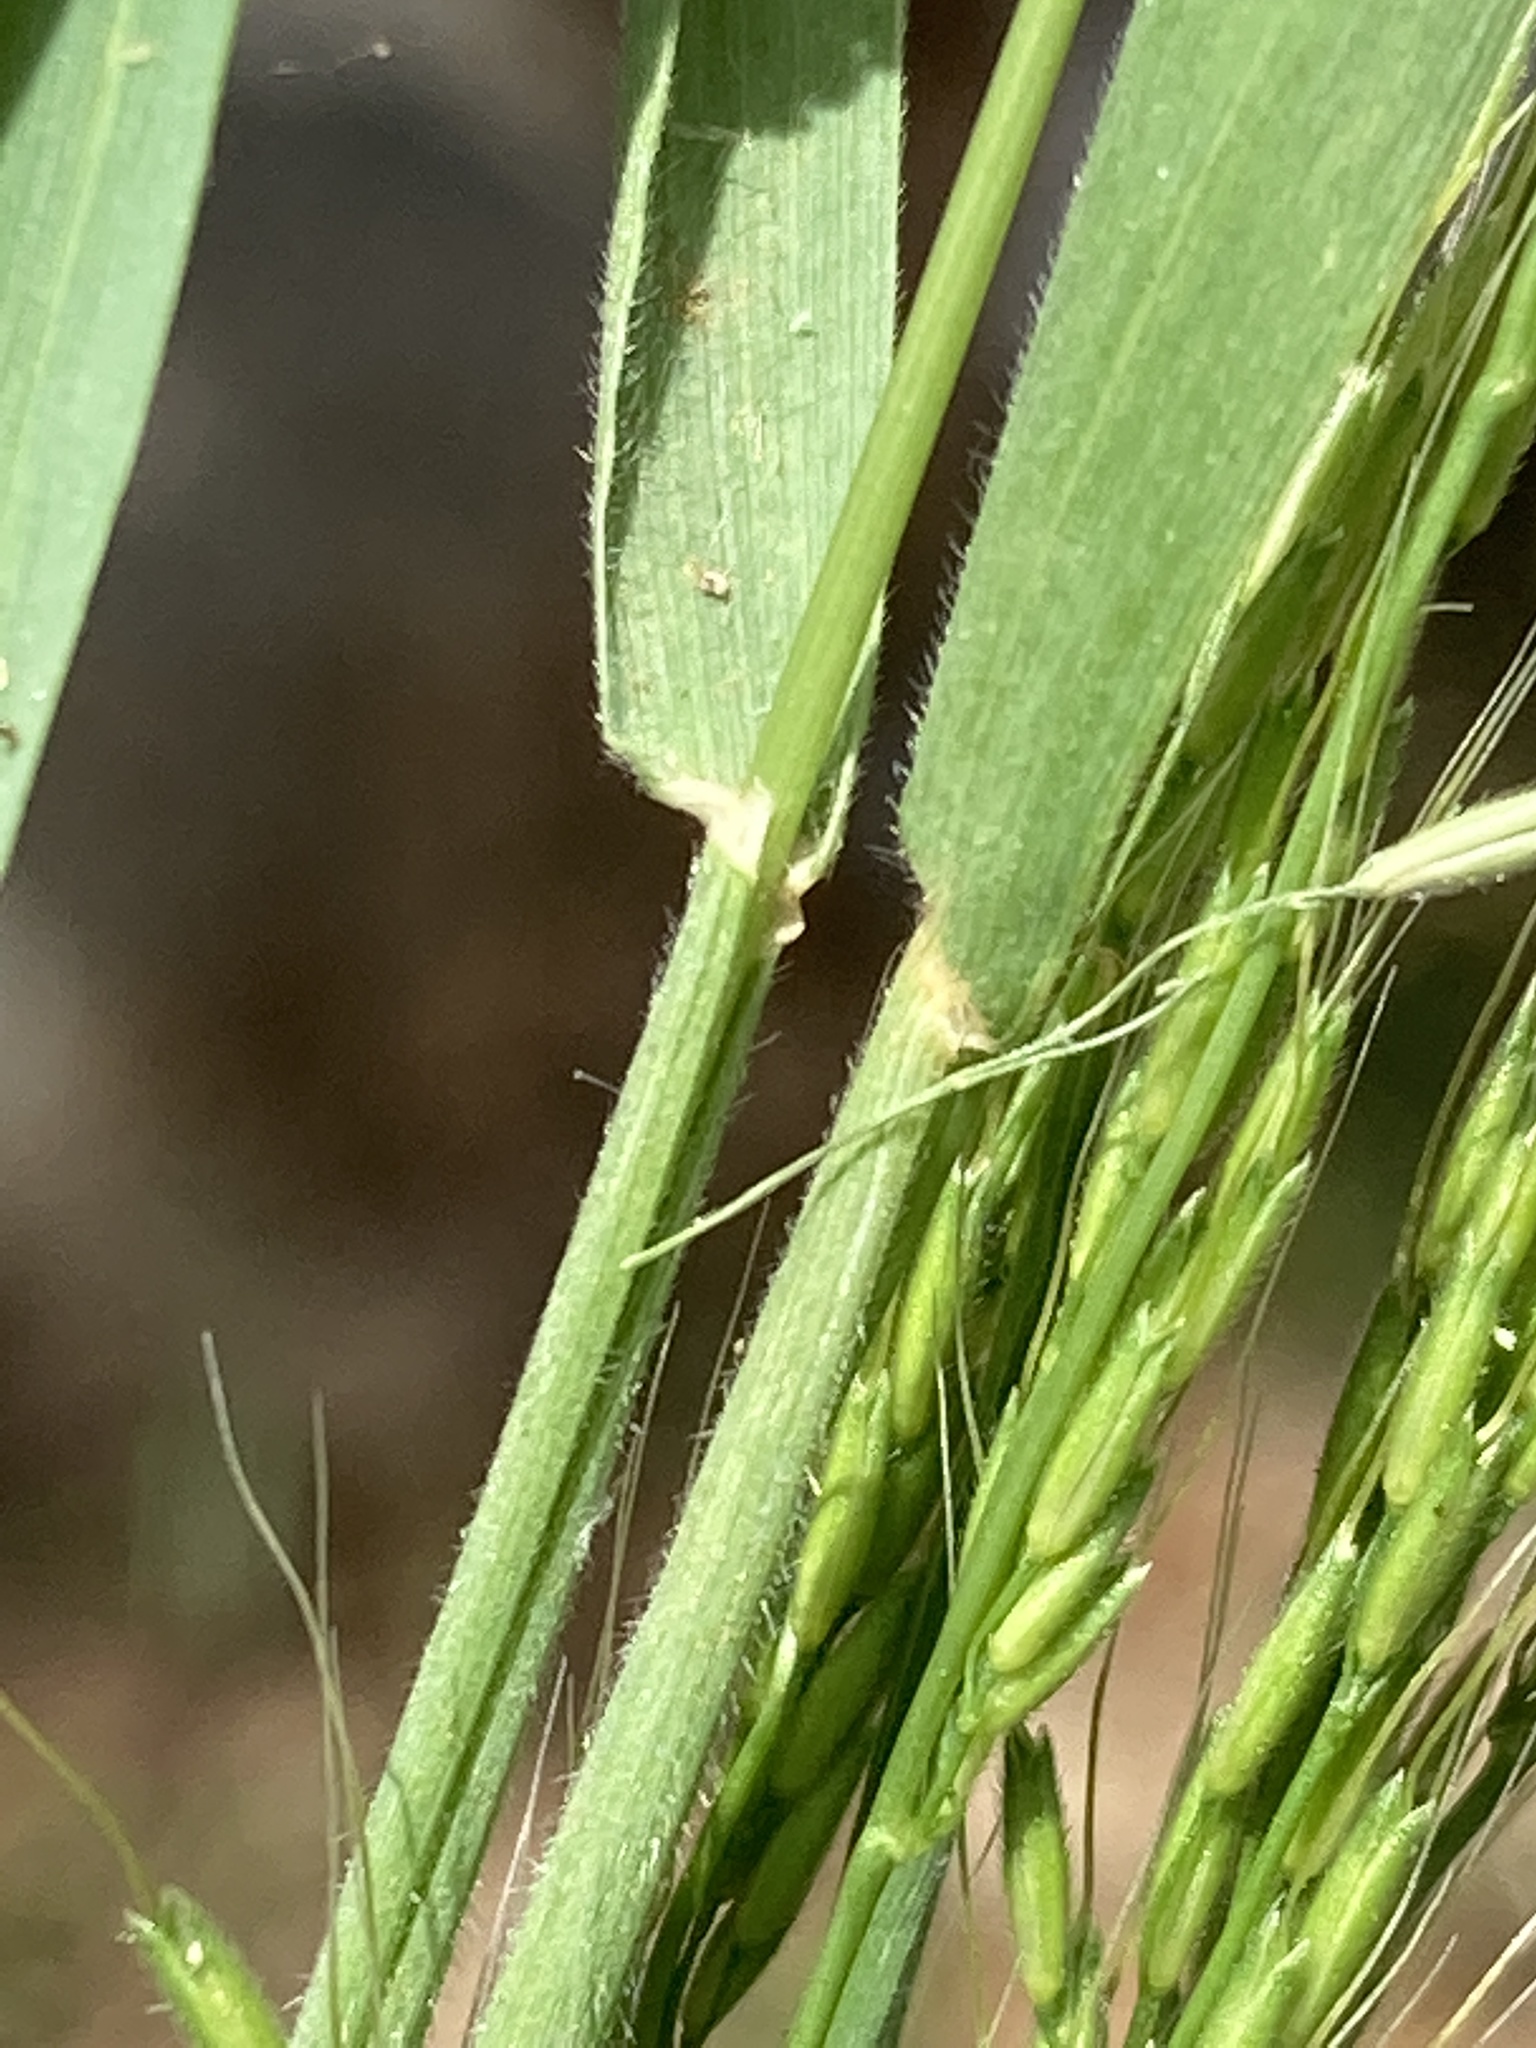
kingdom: Plantae
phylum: Tracheophyta
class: Liliopsida
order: Poales
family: Poaceae
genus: Limnodea
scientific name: Limnodea arkansana
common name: Ozark-grass
